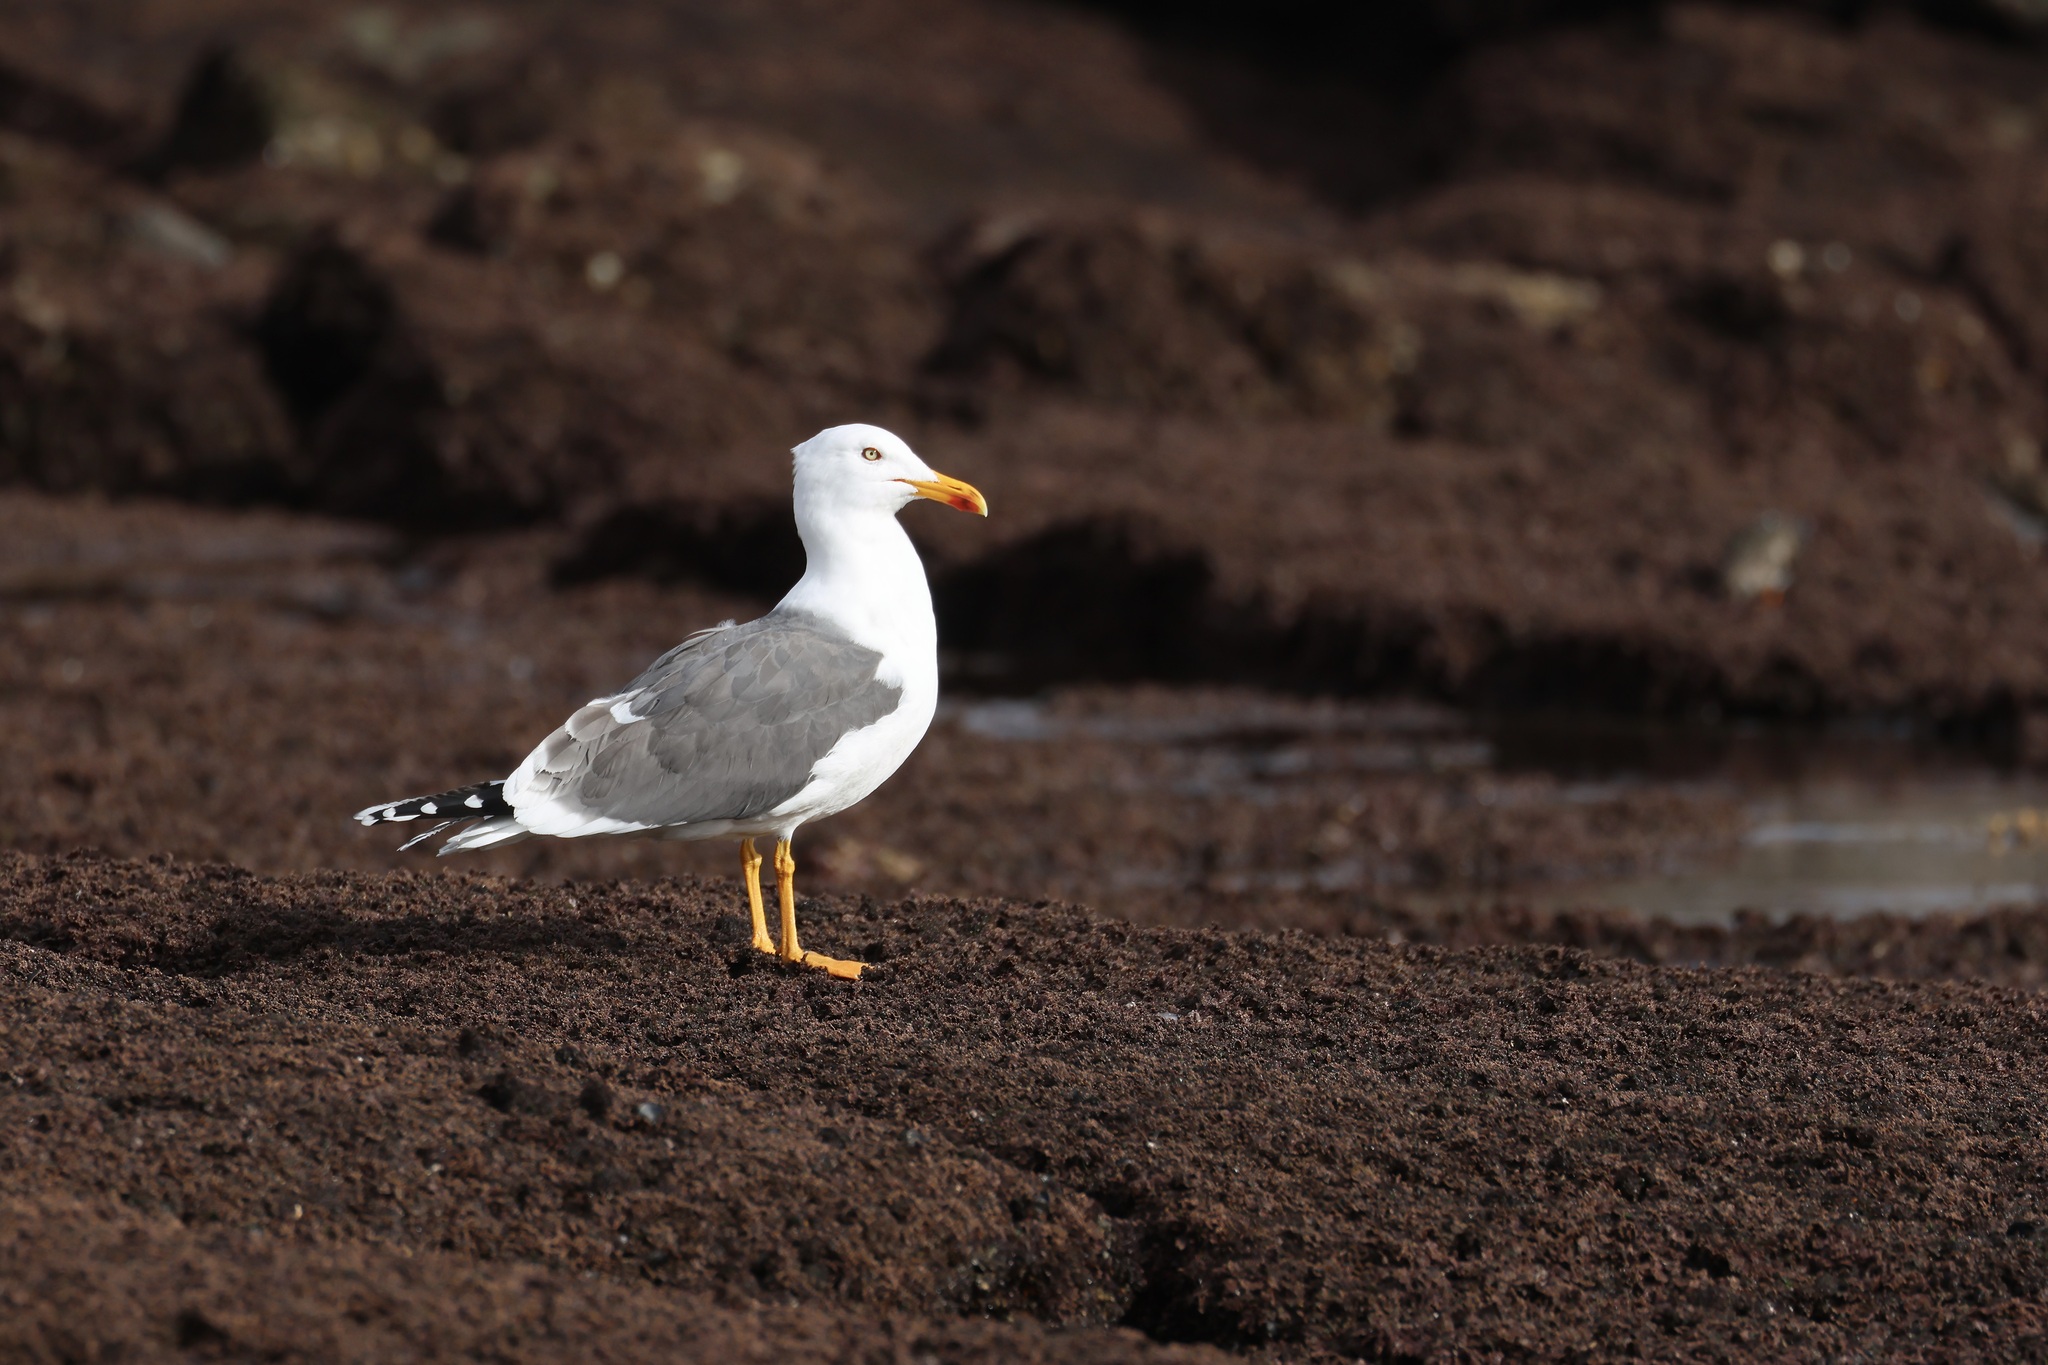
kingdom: Animalia
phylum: Chordata
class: Aves
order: Charadriiformes
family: Laridae
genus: Larus
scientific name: Larus michahellis
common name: Yellow-legged gull
